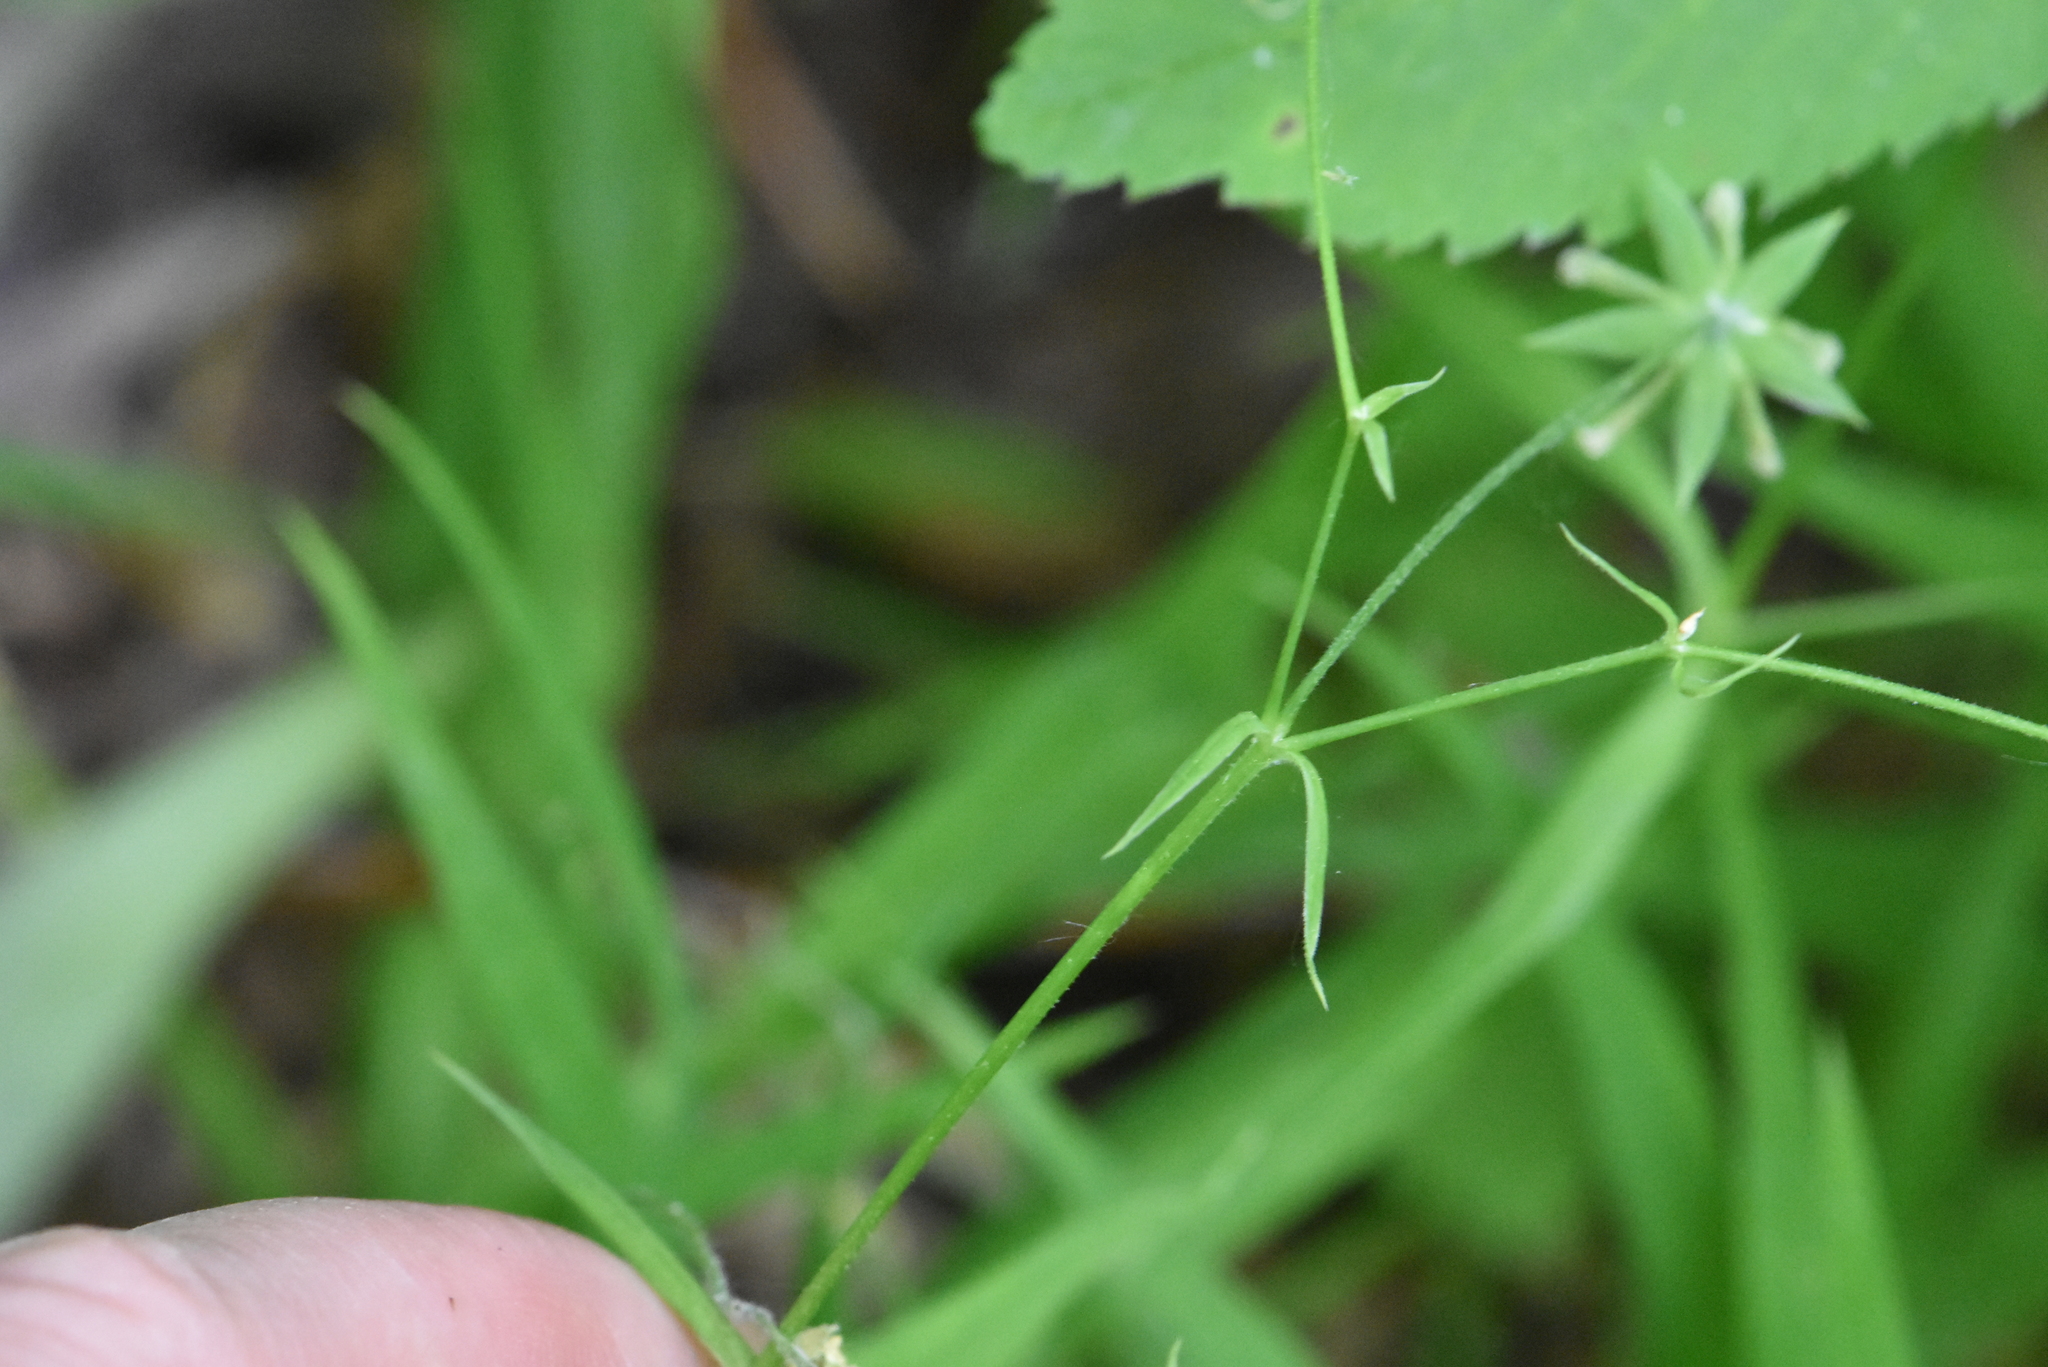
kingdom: Plantae
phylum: Tracheophyta
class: Magnoliopsida
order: Caryophyllales
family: Caryophyllaceae
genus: Rabelera
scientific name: Rabelera holostea
